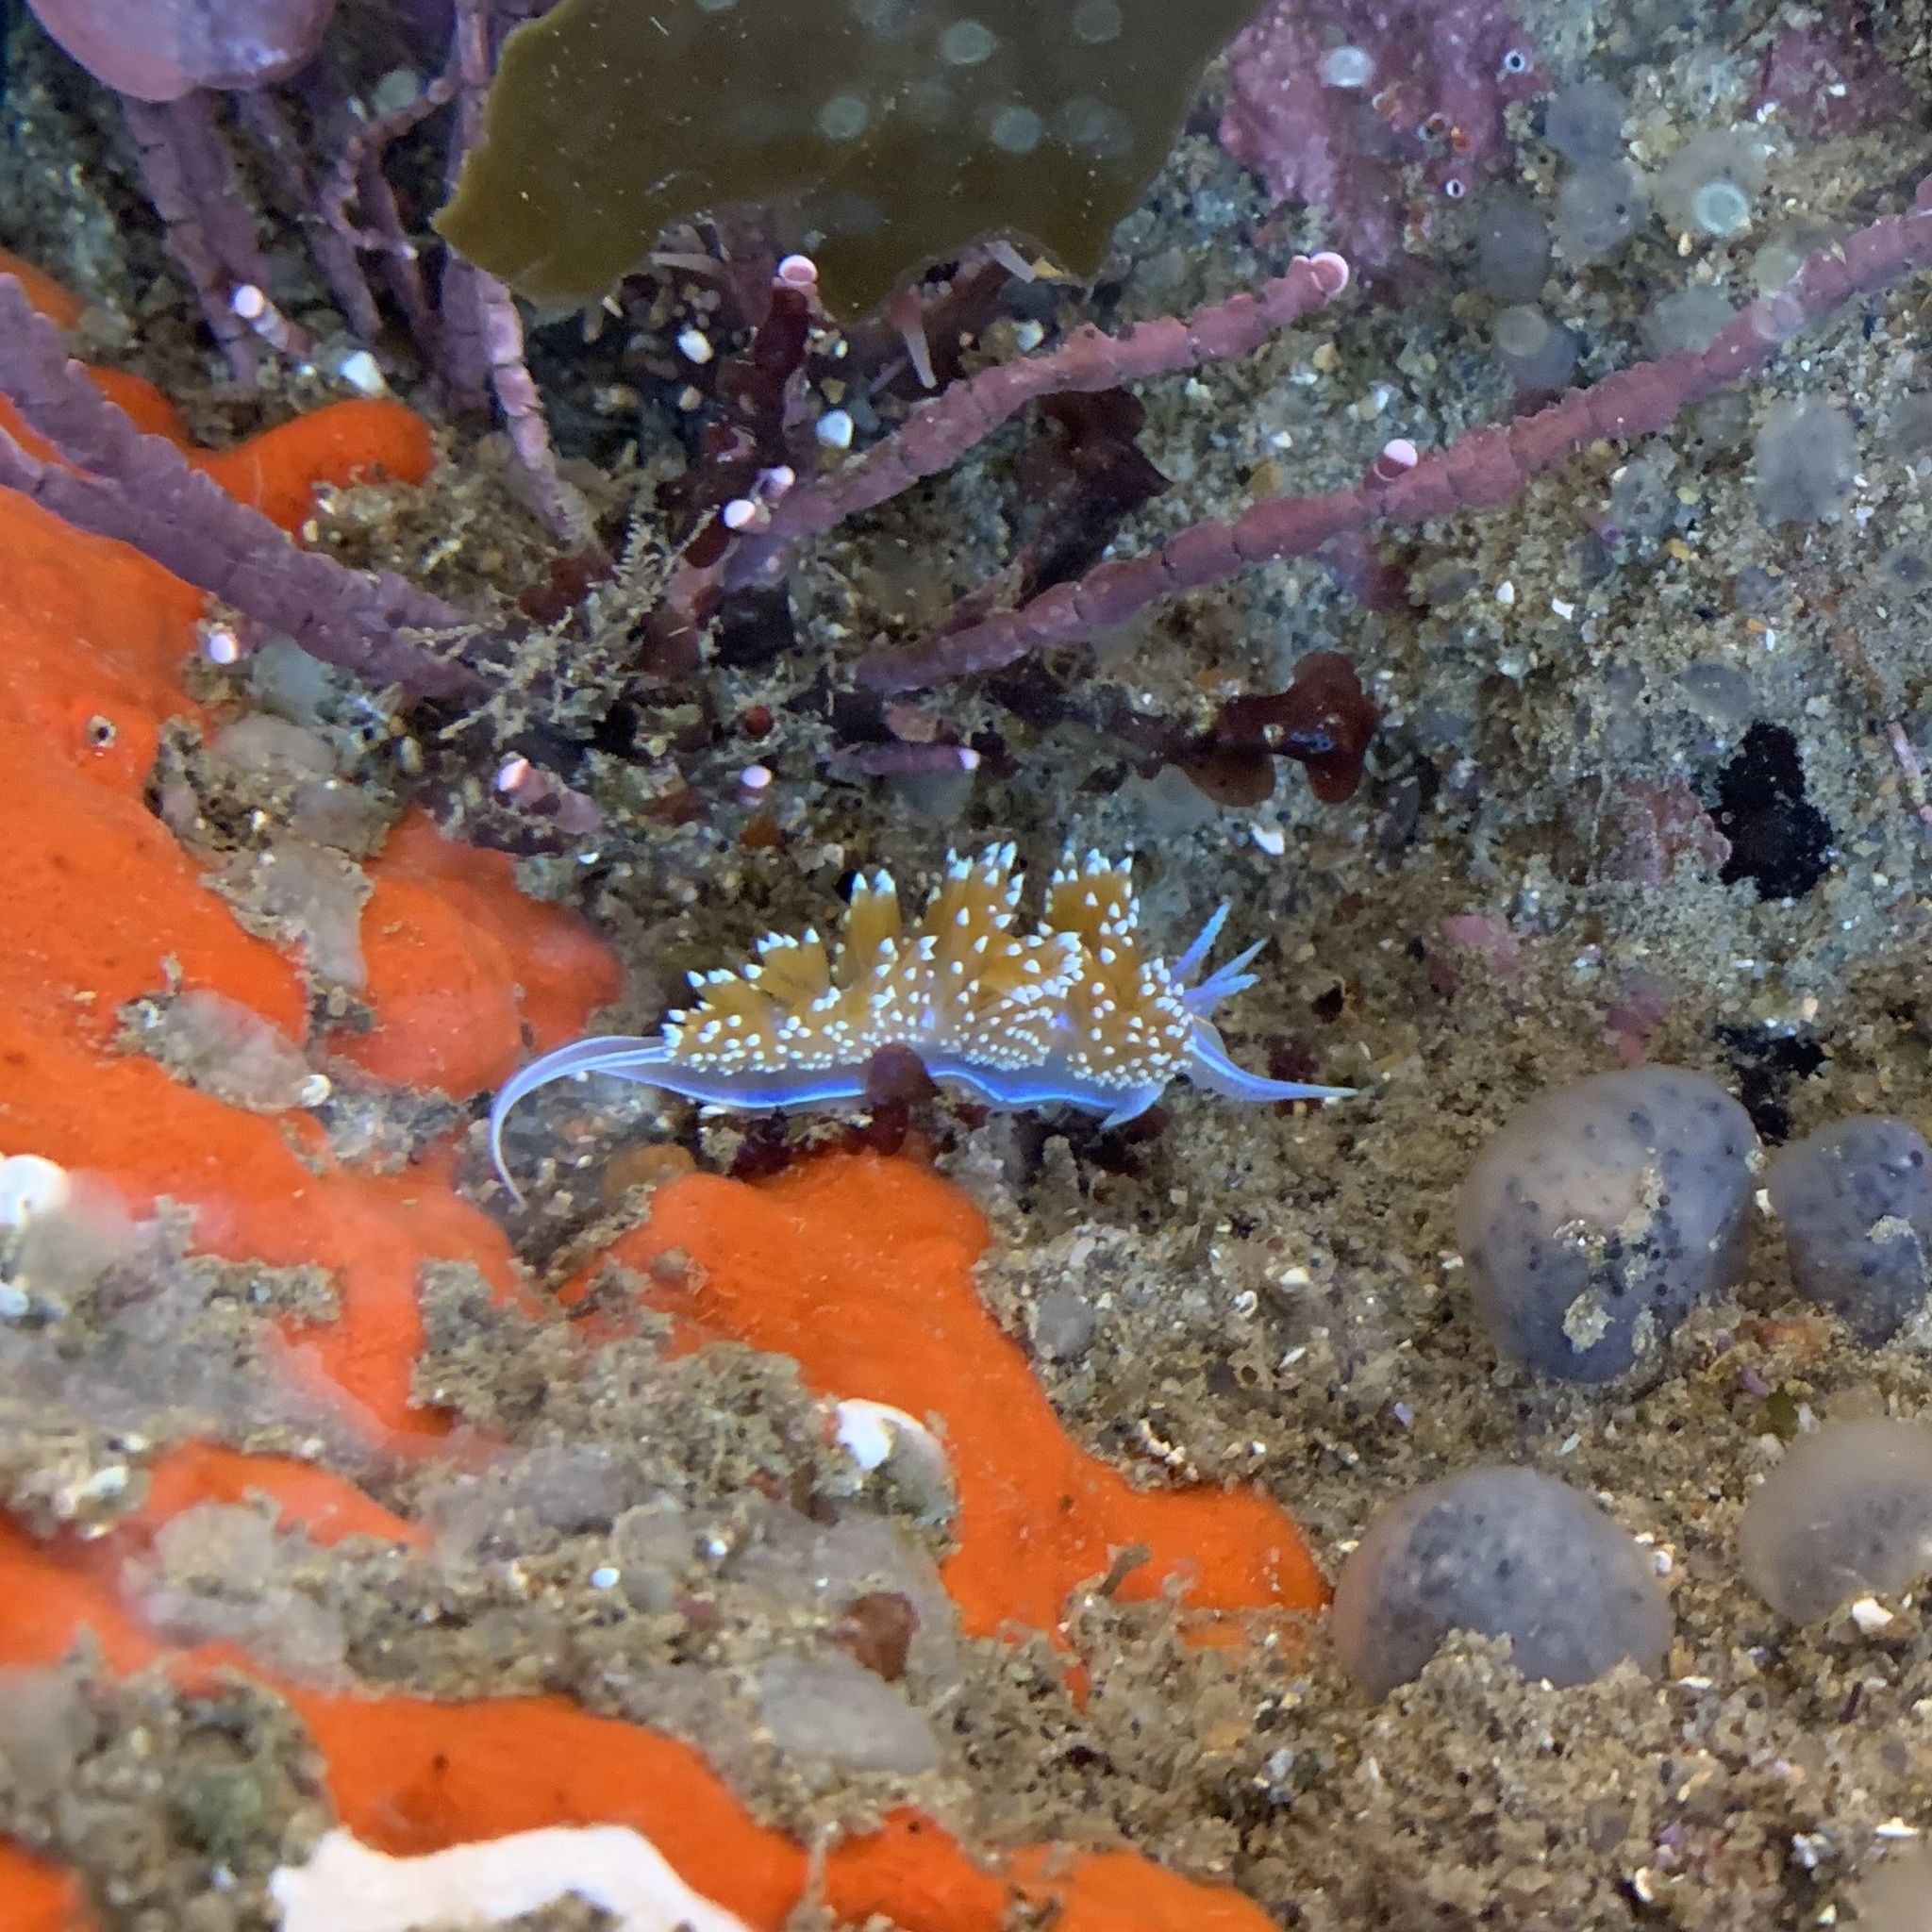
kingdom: Animalia
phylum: Mollusca
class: Gastropoda
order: Nudibranchia
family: Myrrhinidae
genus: Hermissenda
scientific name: Hermissenda opalescens
